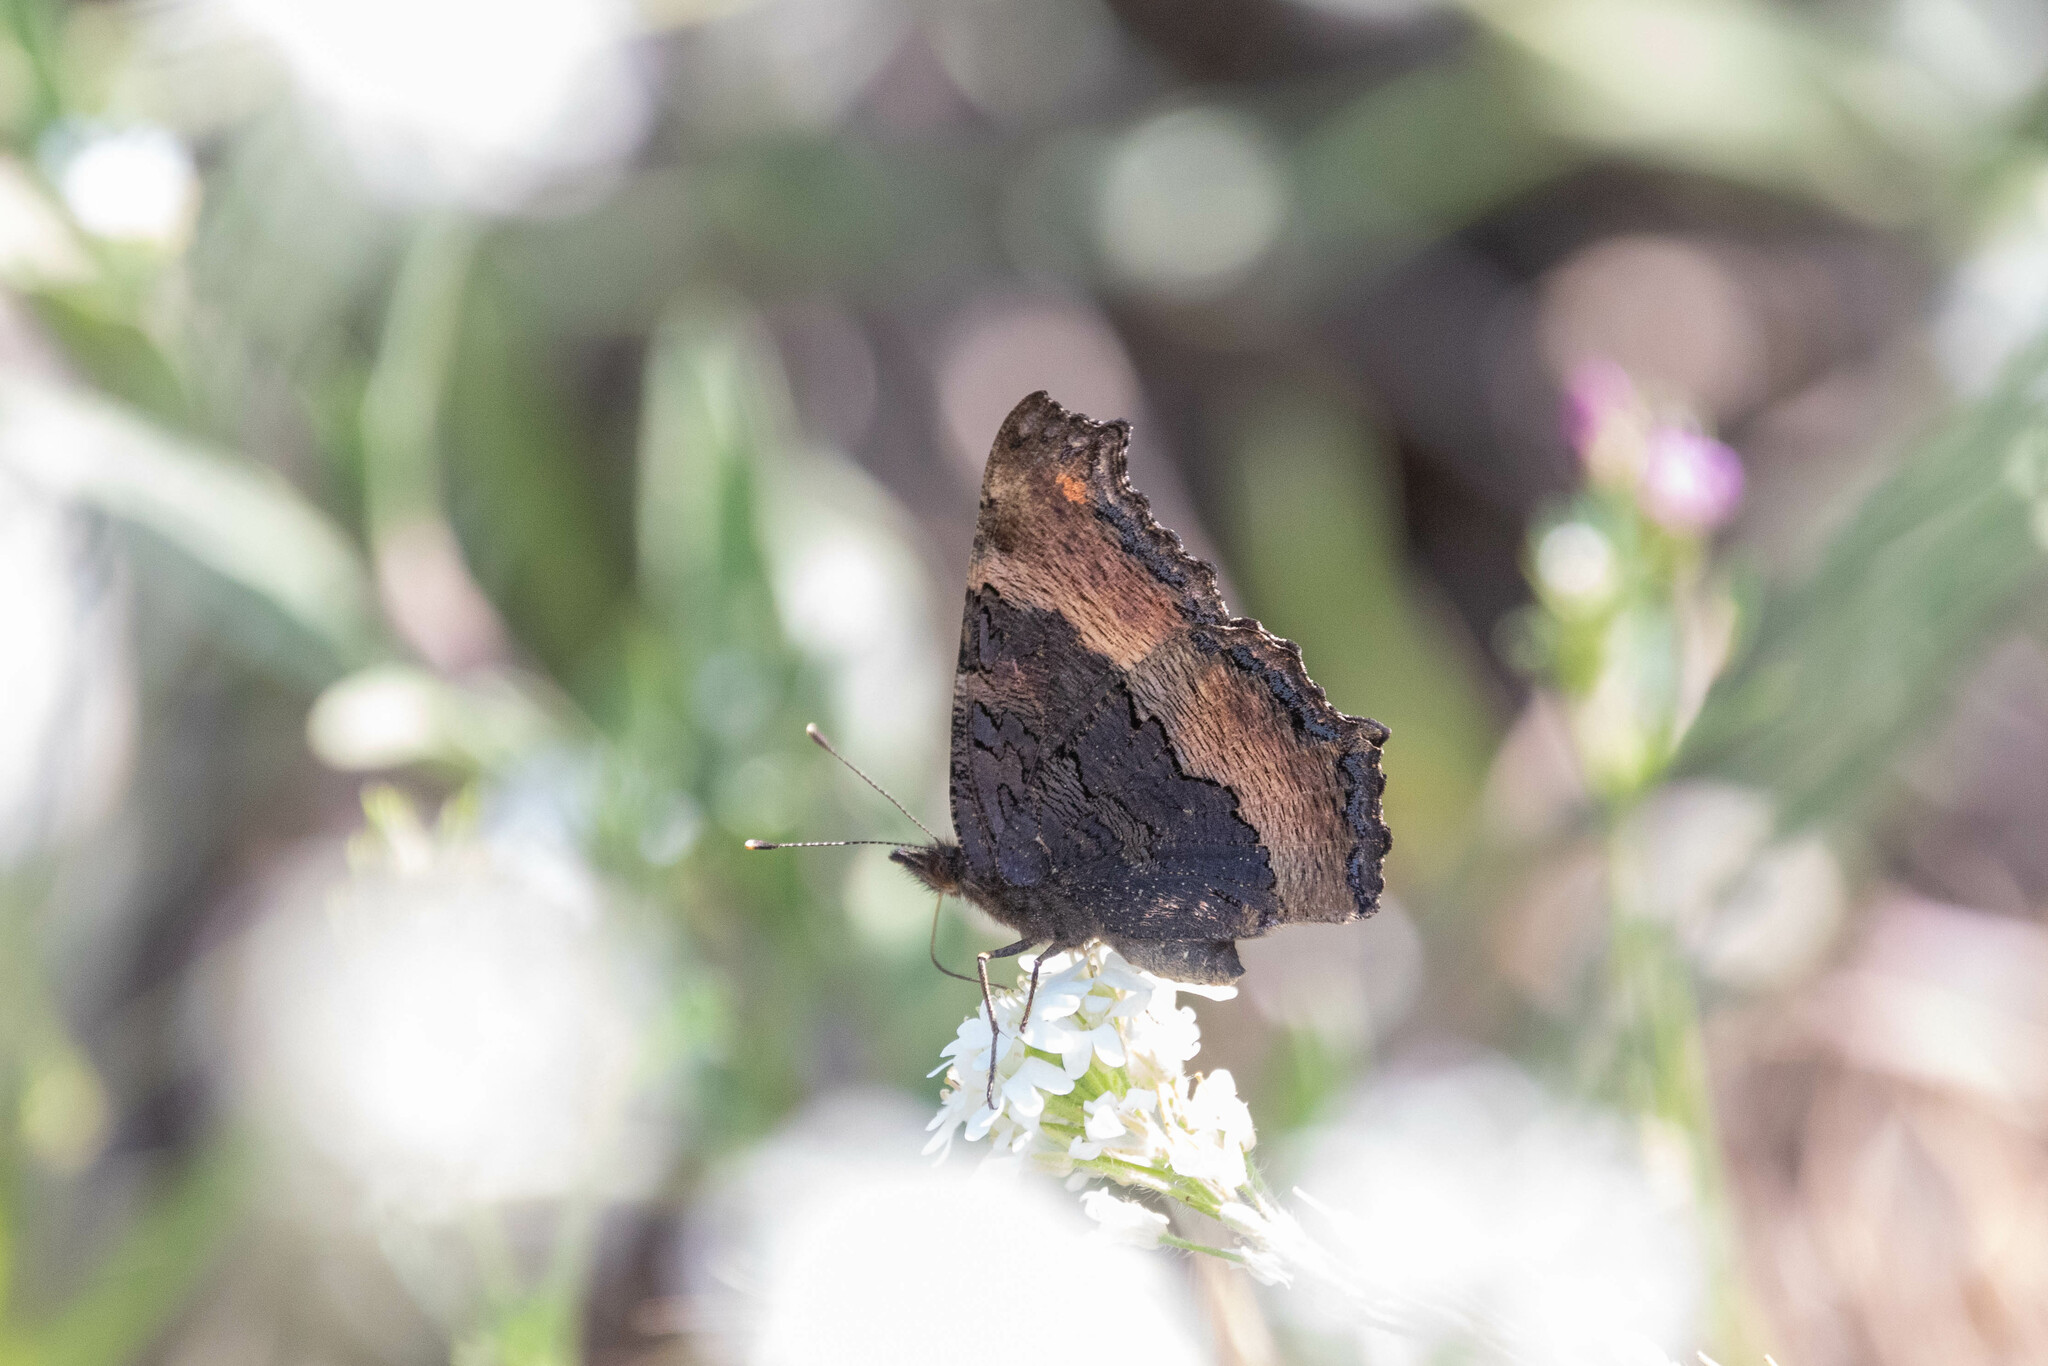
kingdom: Animalia
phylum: Arthropoda
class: Insecta
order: Lepidoptera
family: Nymphalidae
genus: Aglais
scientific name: Aglais milberti
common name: Milbert's tortoiseshell
